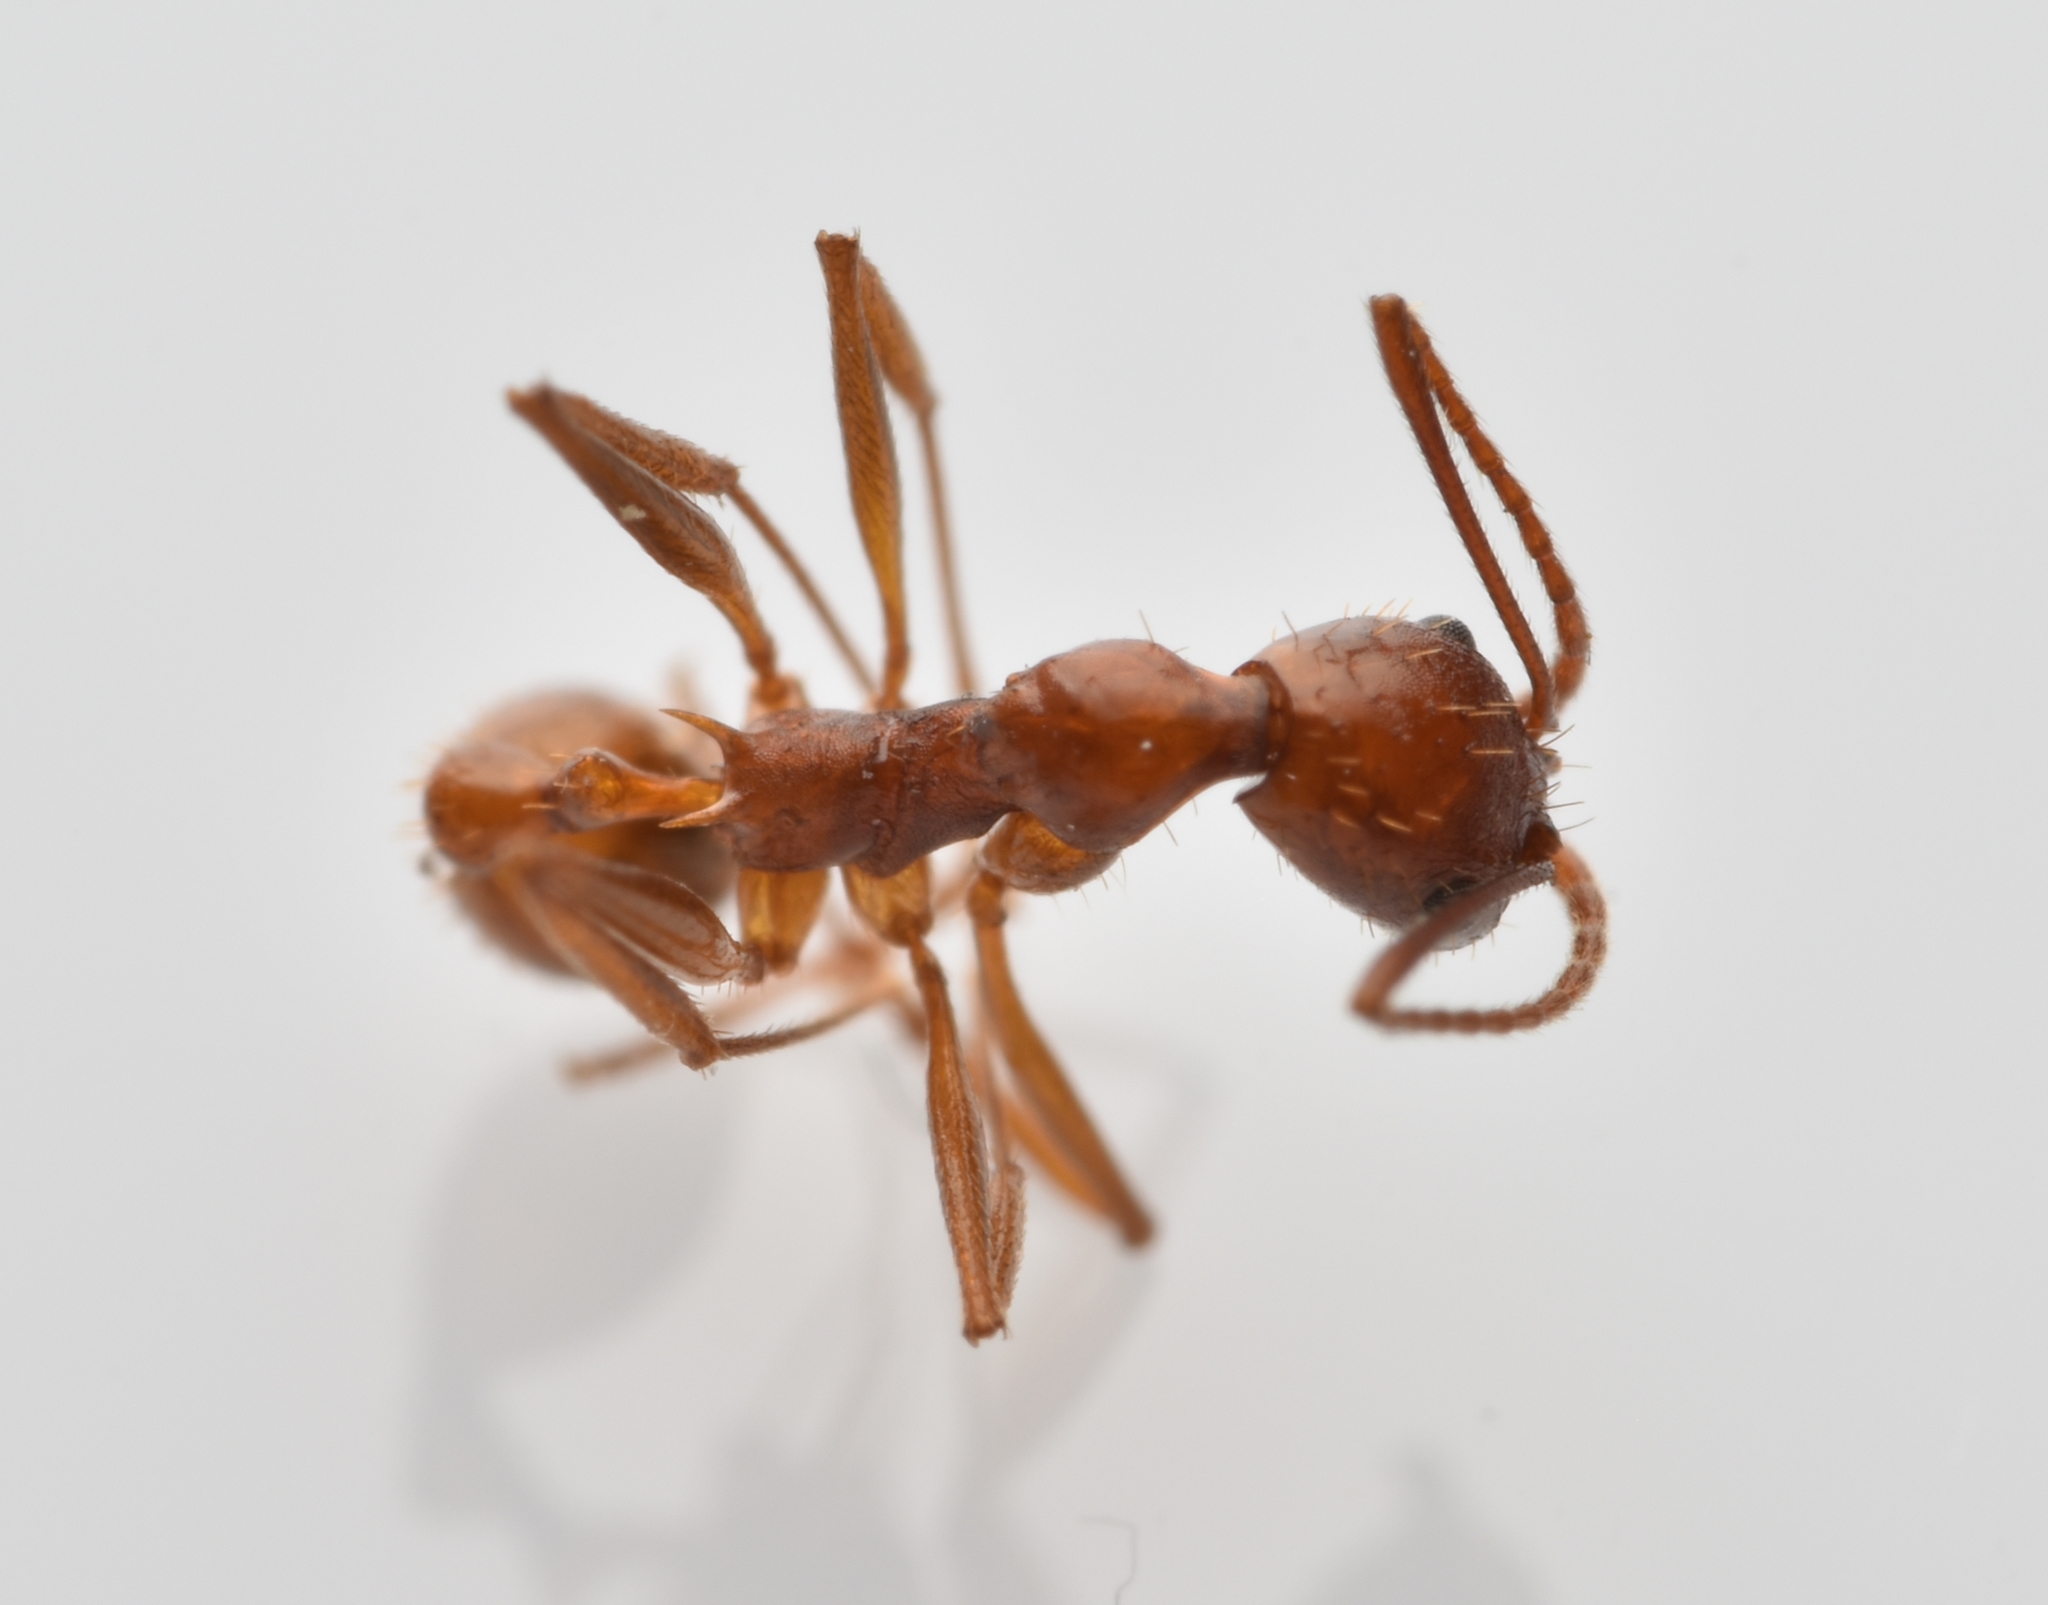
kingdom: Animalia
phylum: Arthropoda
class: Insecta
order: Hymenoptera
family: Formicidae
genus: Aphaenogaster
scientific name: Aphaenogaster flemingi
